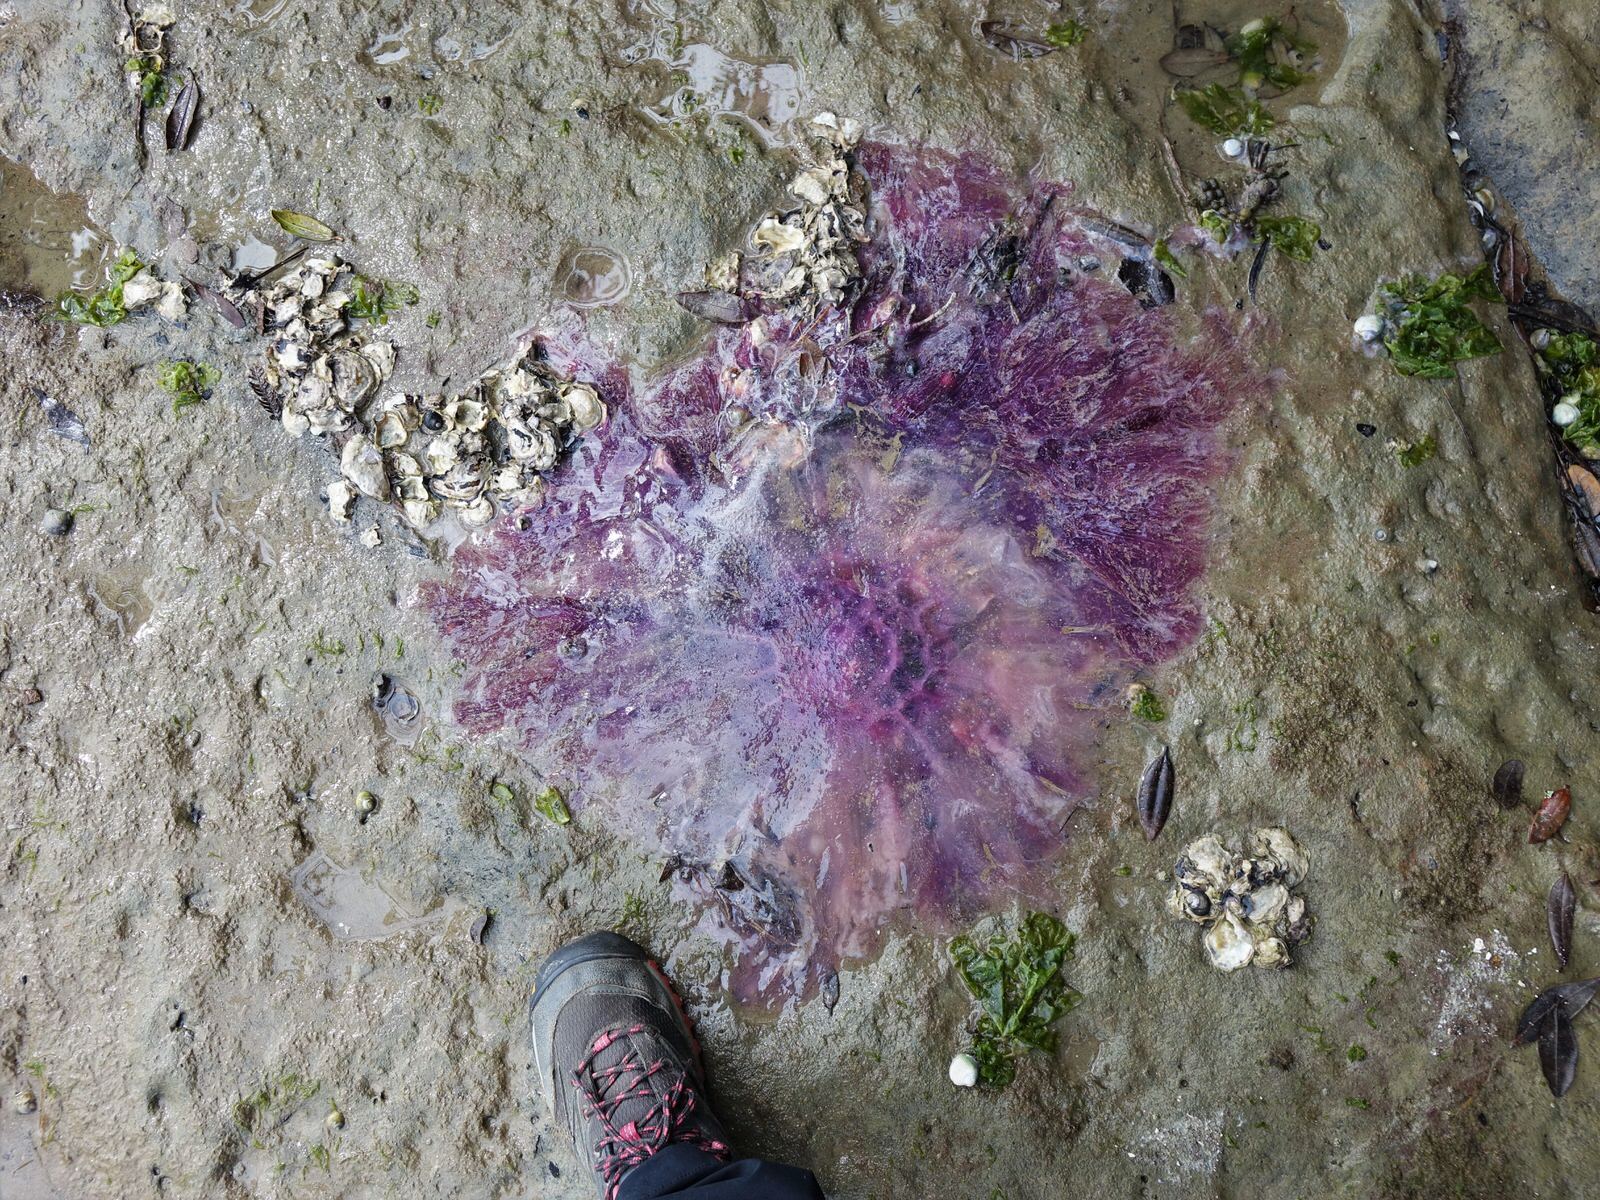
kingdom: Animalia
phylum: Cnidaria
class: Scyphozoa
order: Semaeostomeae
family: Cyaneidae
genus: Cyanea
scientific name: Cyanea
